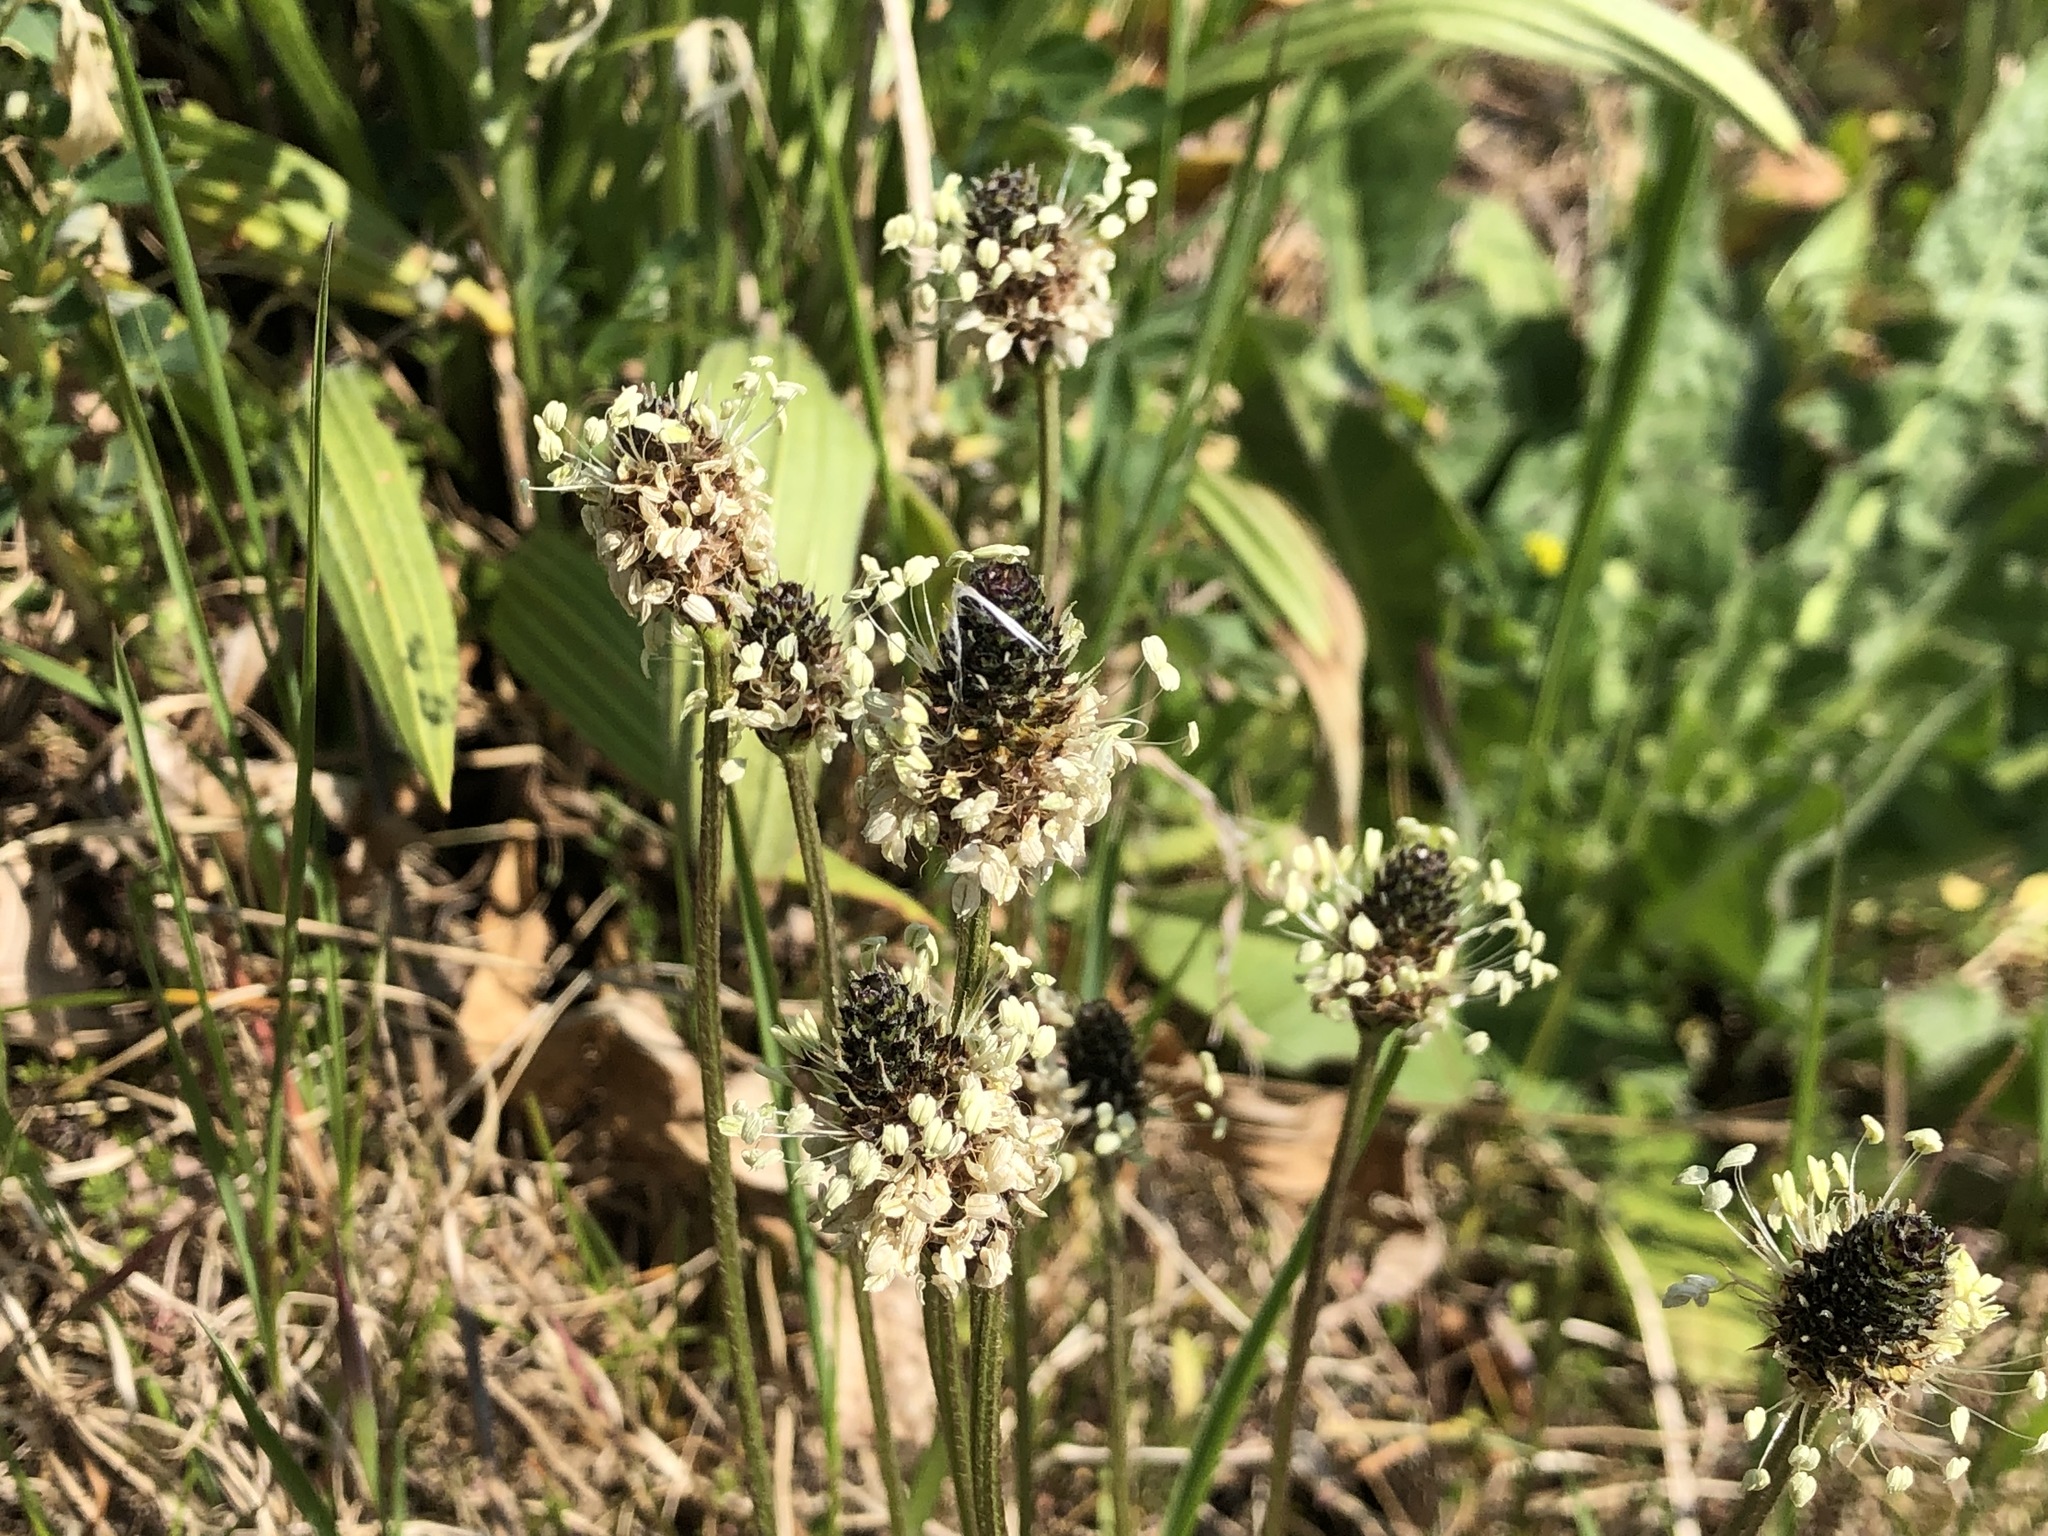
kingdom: Plantae
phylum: Tracheophyta
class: Magnoliopsida
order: Lamiales
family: Plantaginaceae
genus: Plantago
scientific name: Plantago lanceolata
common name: Ribwort plantain
